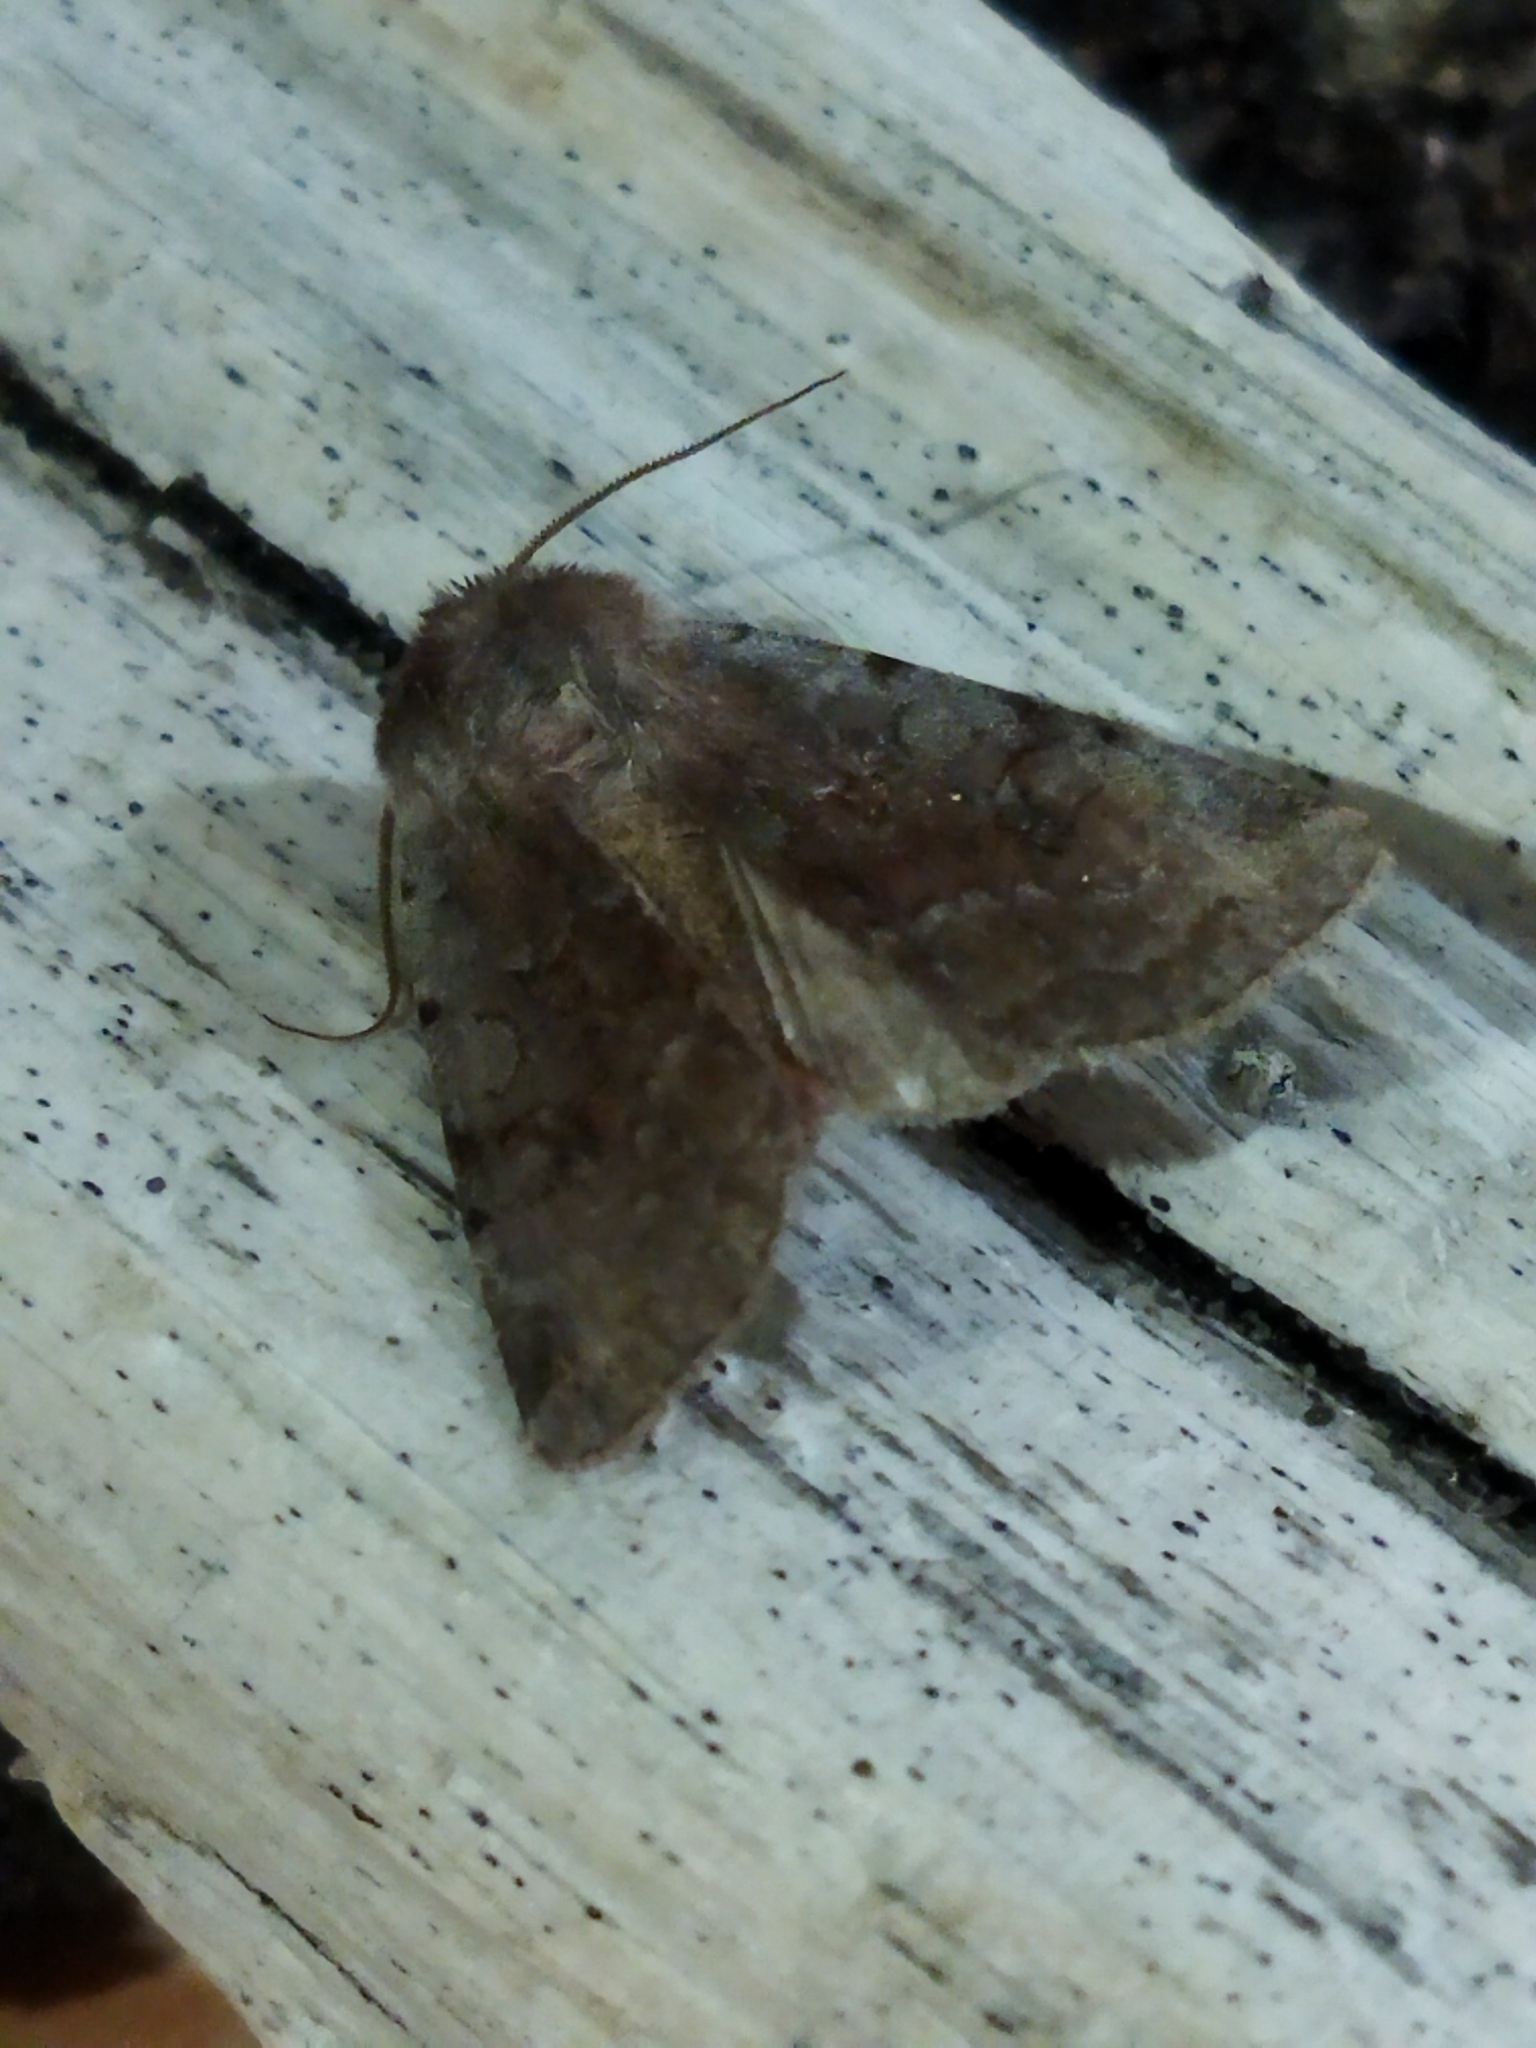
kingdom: Animalia
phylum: Arthropoda
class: Insecta
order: Lepidoptera
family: Noctuidae
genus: Cerastis
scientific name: Cerastis rubricosa
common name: Red chestnut
